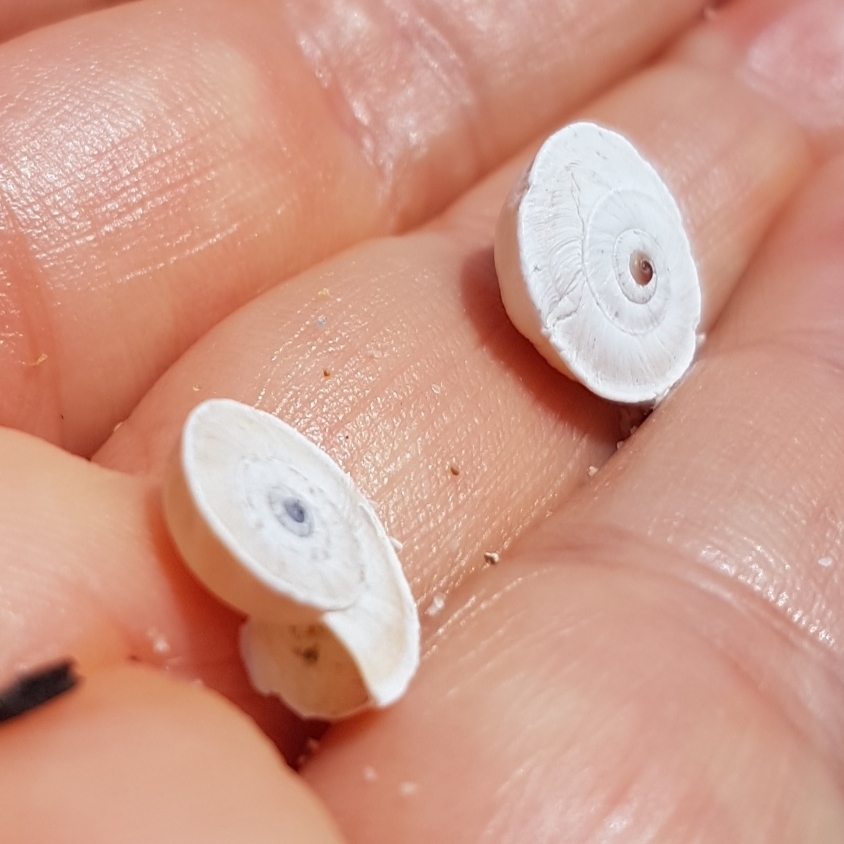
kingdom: Animalia
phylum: Mollusca
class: Gastropoda
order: Stylommatophora
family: Geomitridae
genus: Xerosecta
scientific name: Xerosecta explanata
